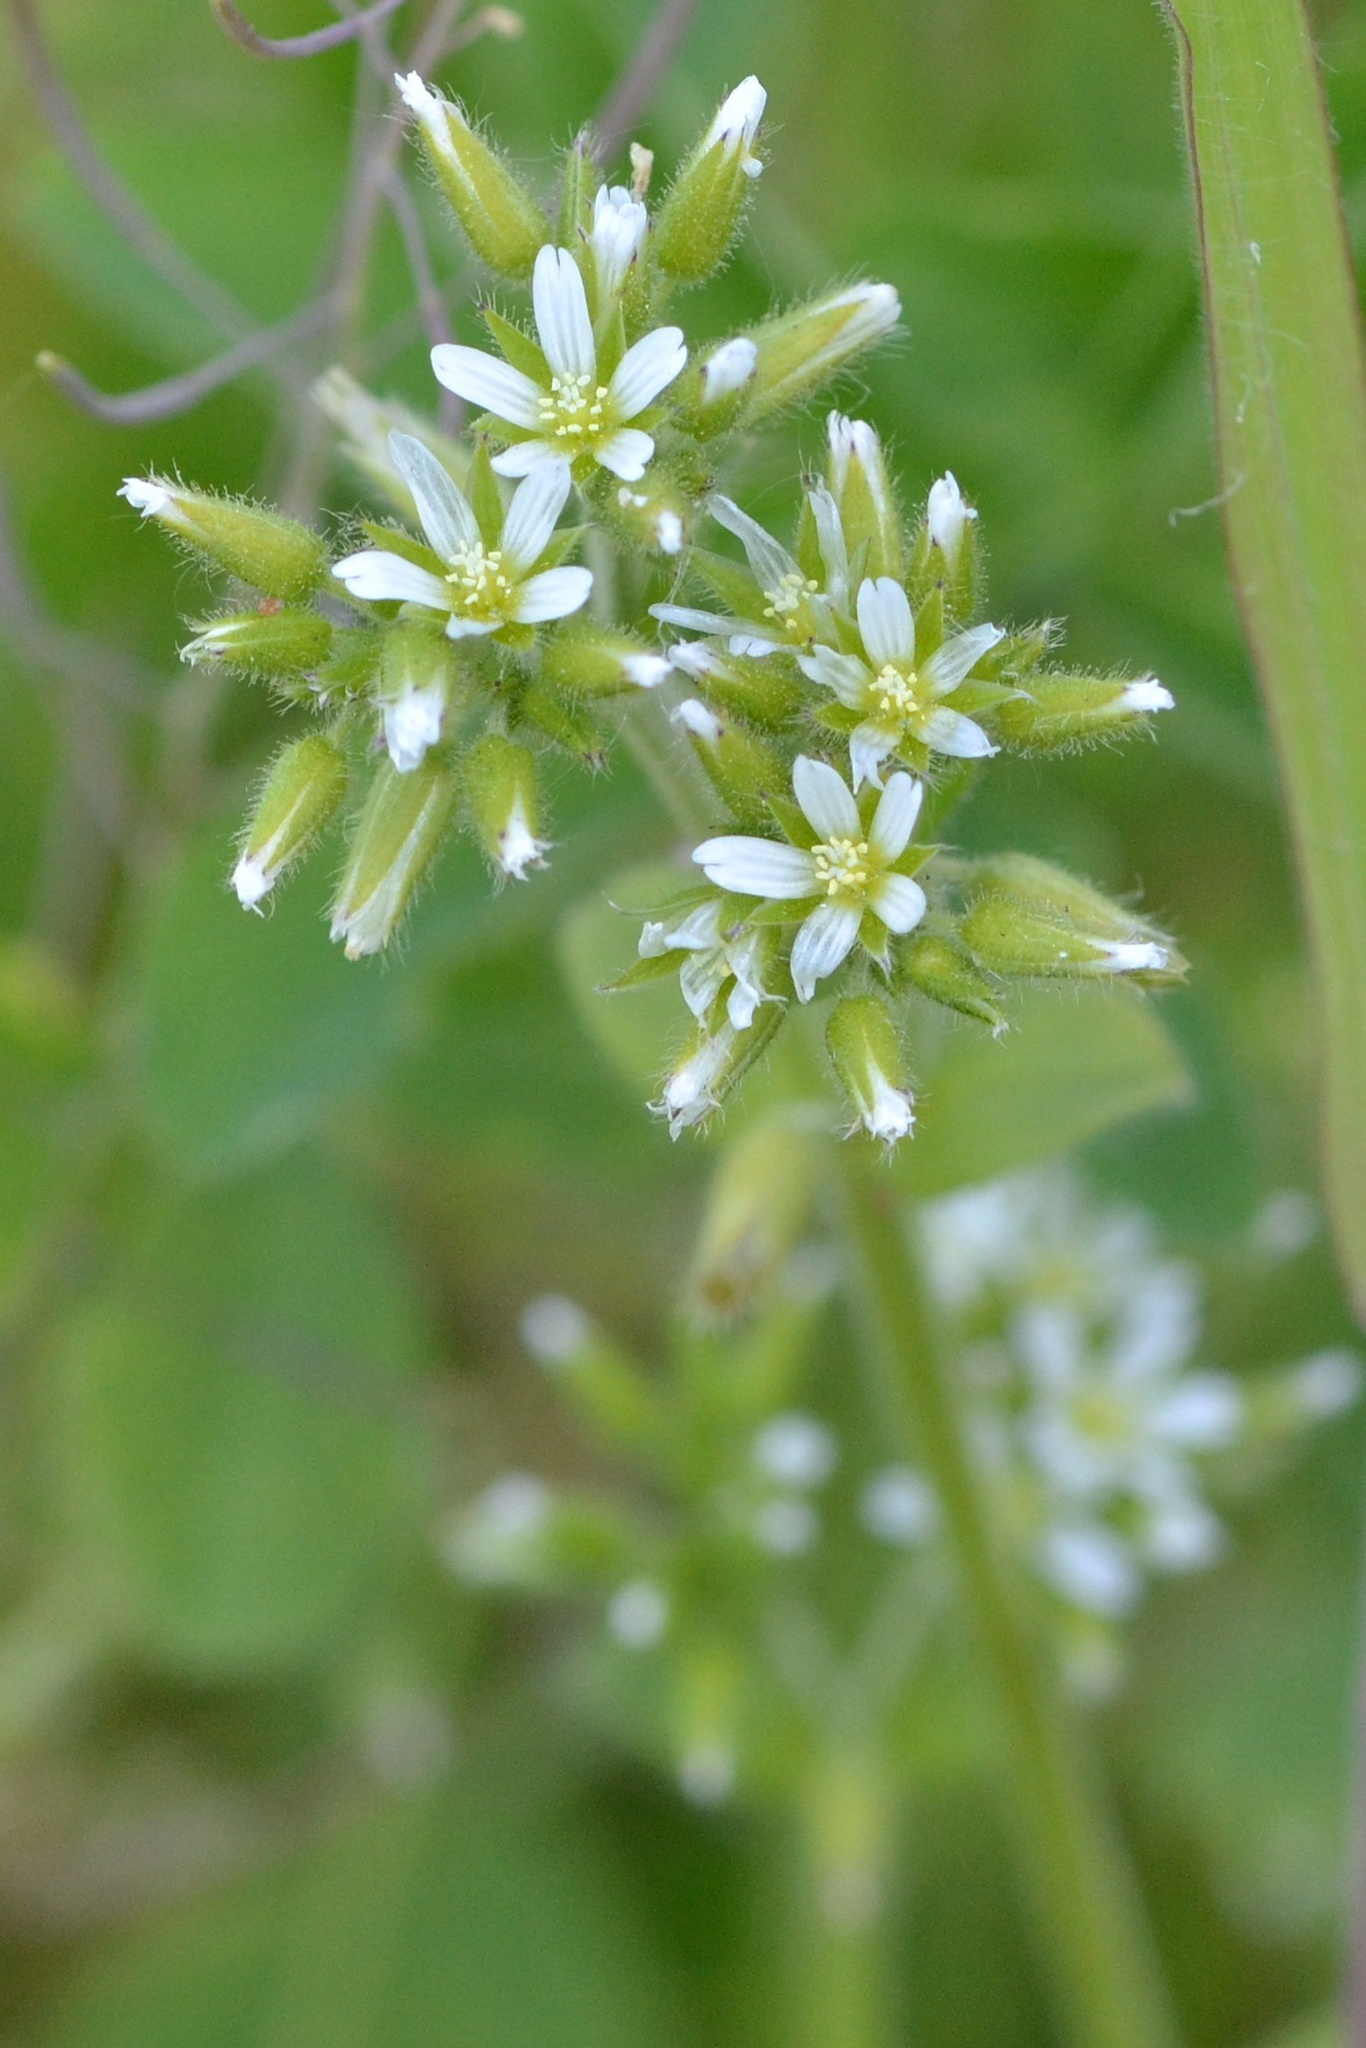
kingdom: Plantae
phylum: Tracheophyta
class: Magnoliopsida
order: Caryophyllales
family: Caryophyllaceae
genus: Cerastium
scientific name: Cerastium glomeratum
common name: Sticky chickweed
